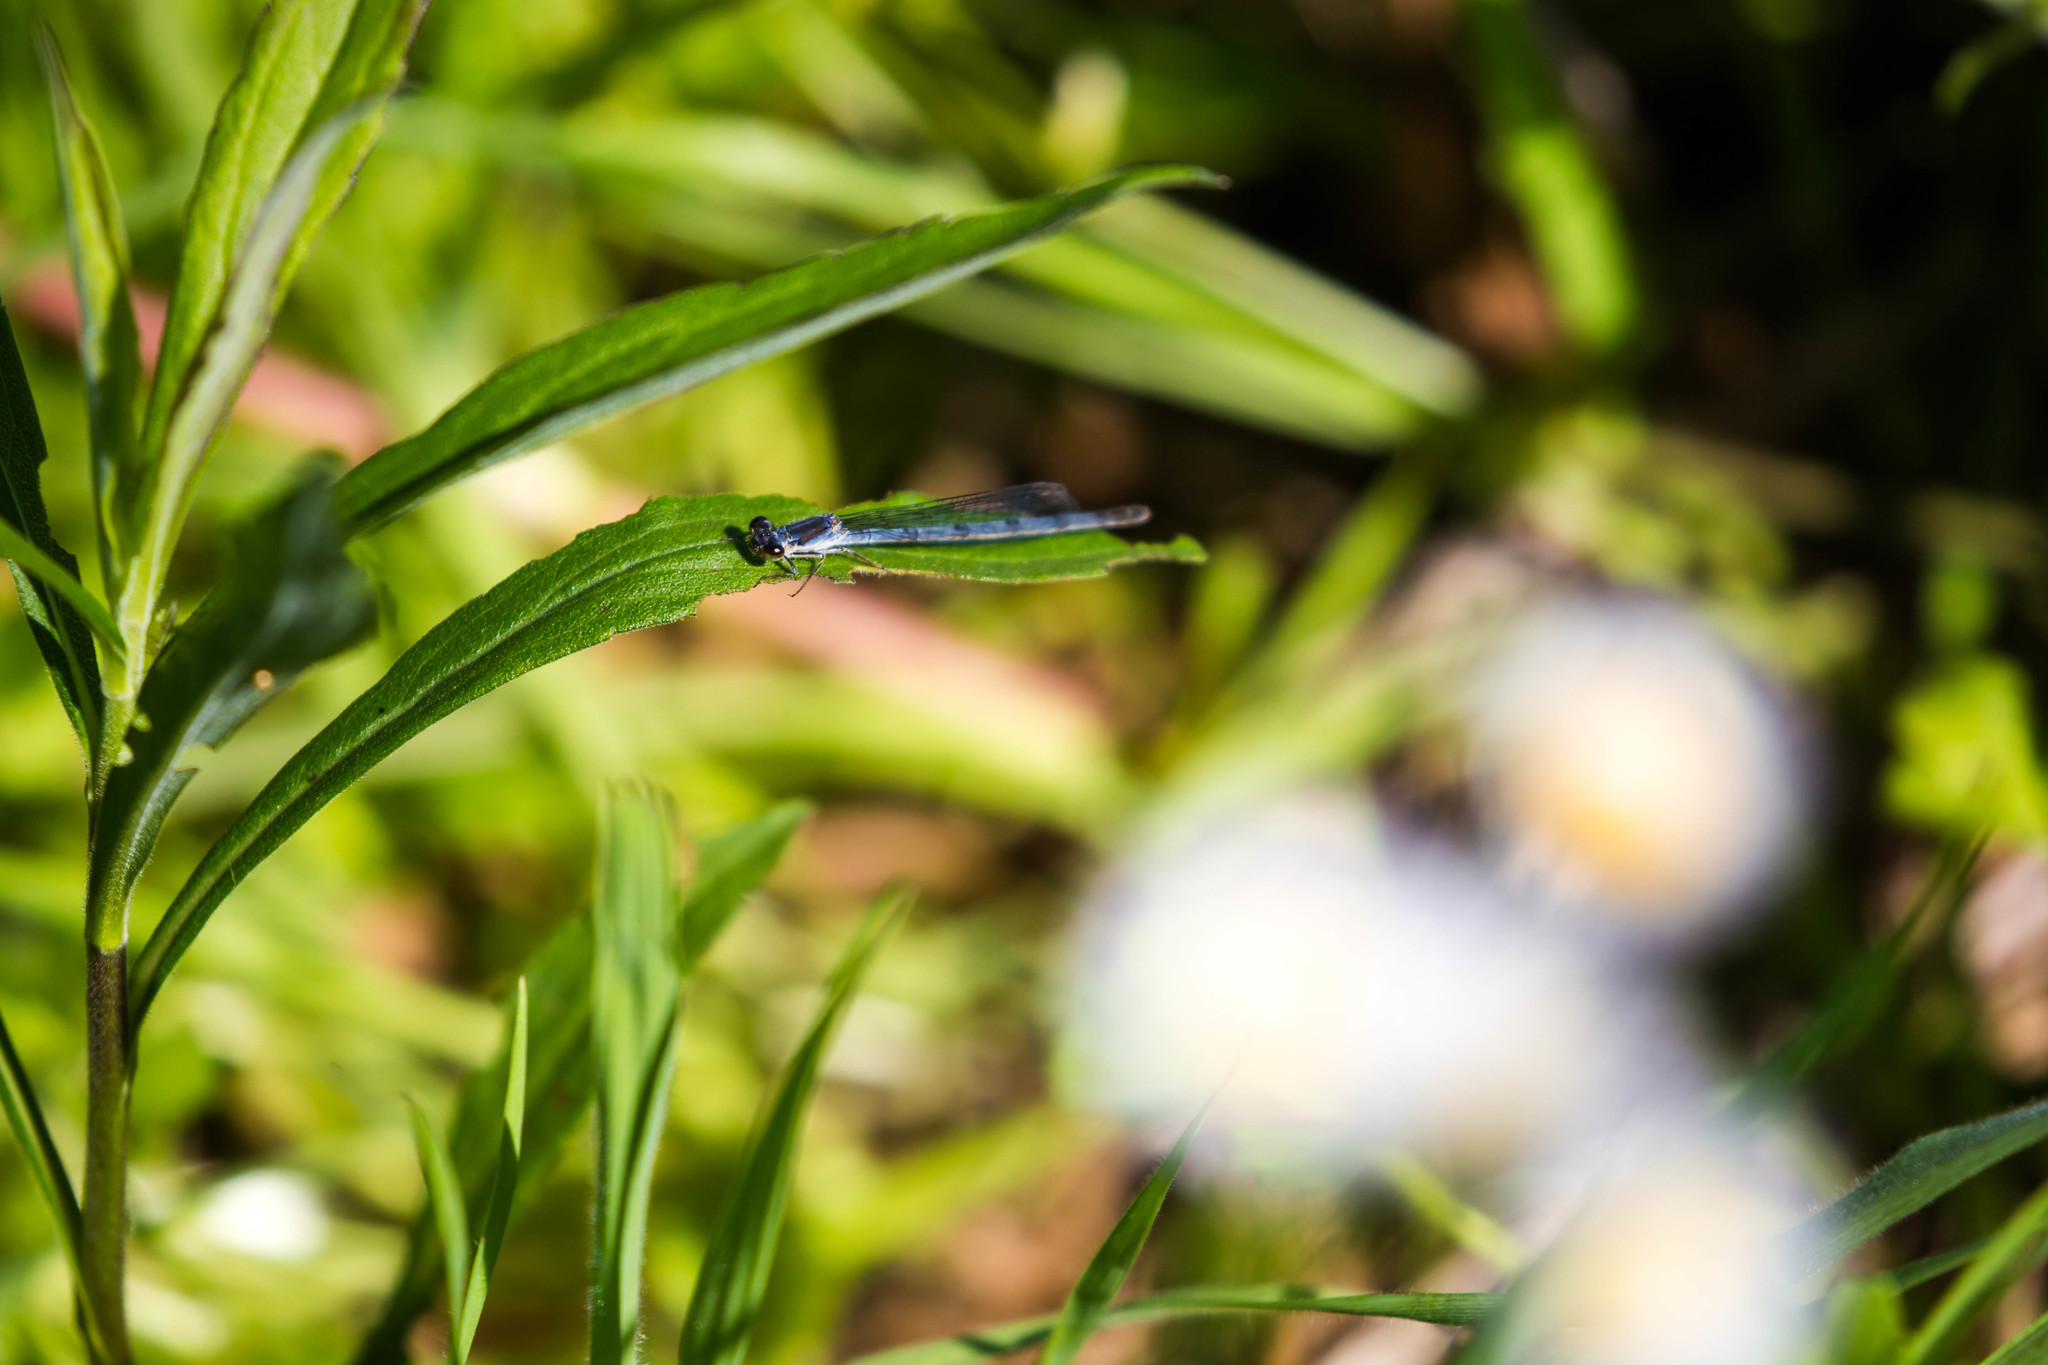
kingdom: Animalia
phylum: Arthropoda
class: Insecta
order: Odonata
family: Coenagrionidae
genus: Ischnura
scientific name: Ischnura posita
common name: Fragile forktail
